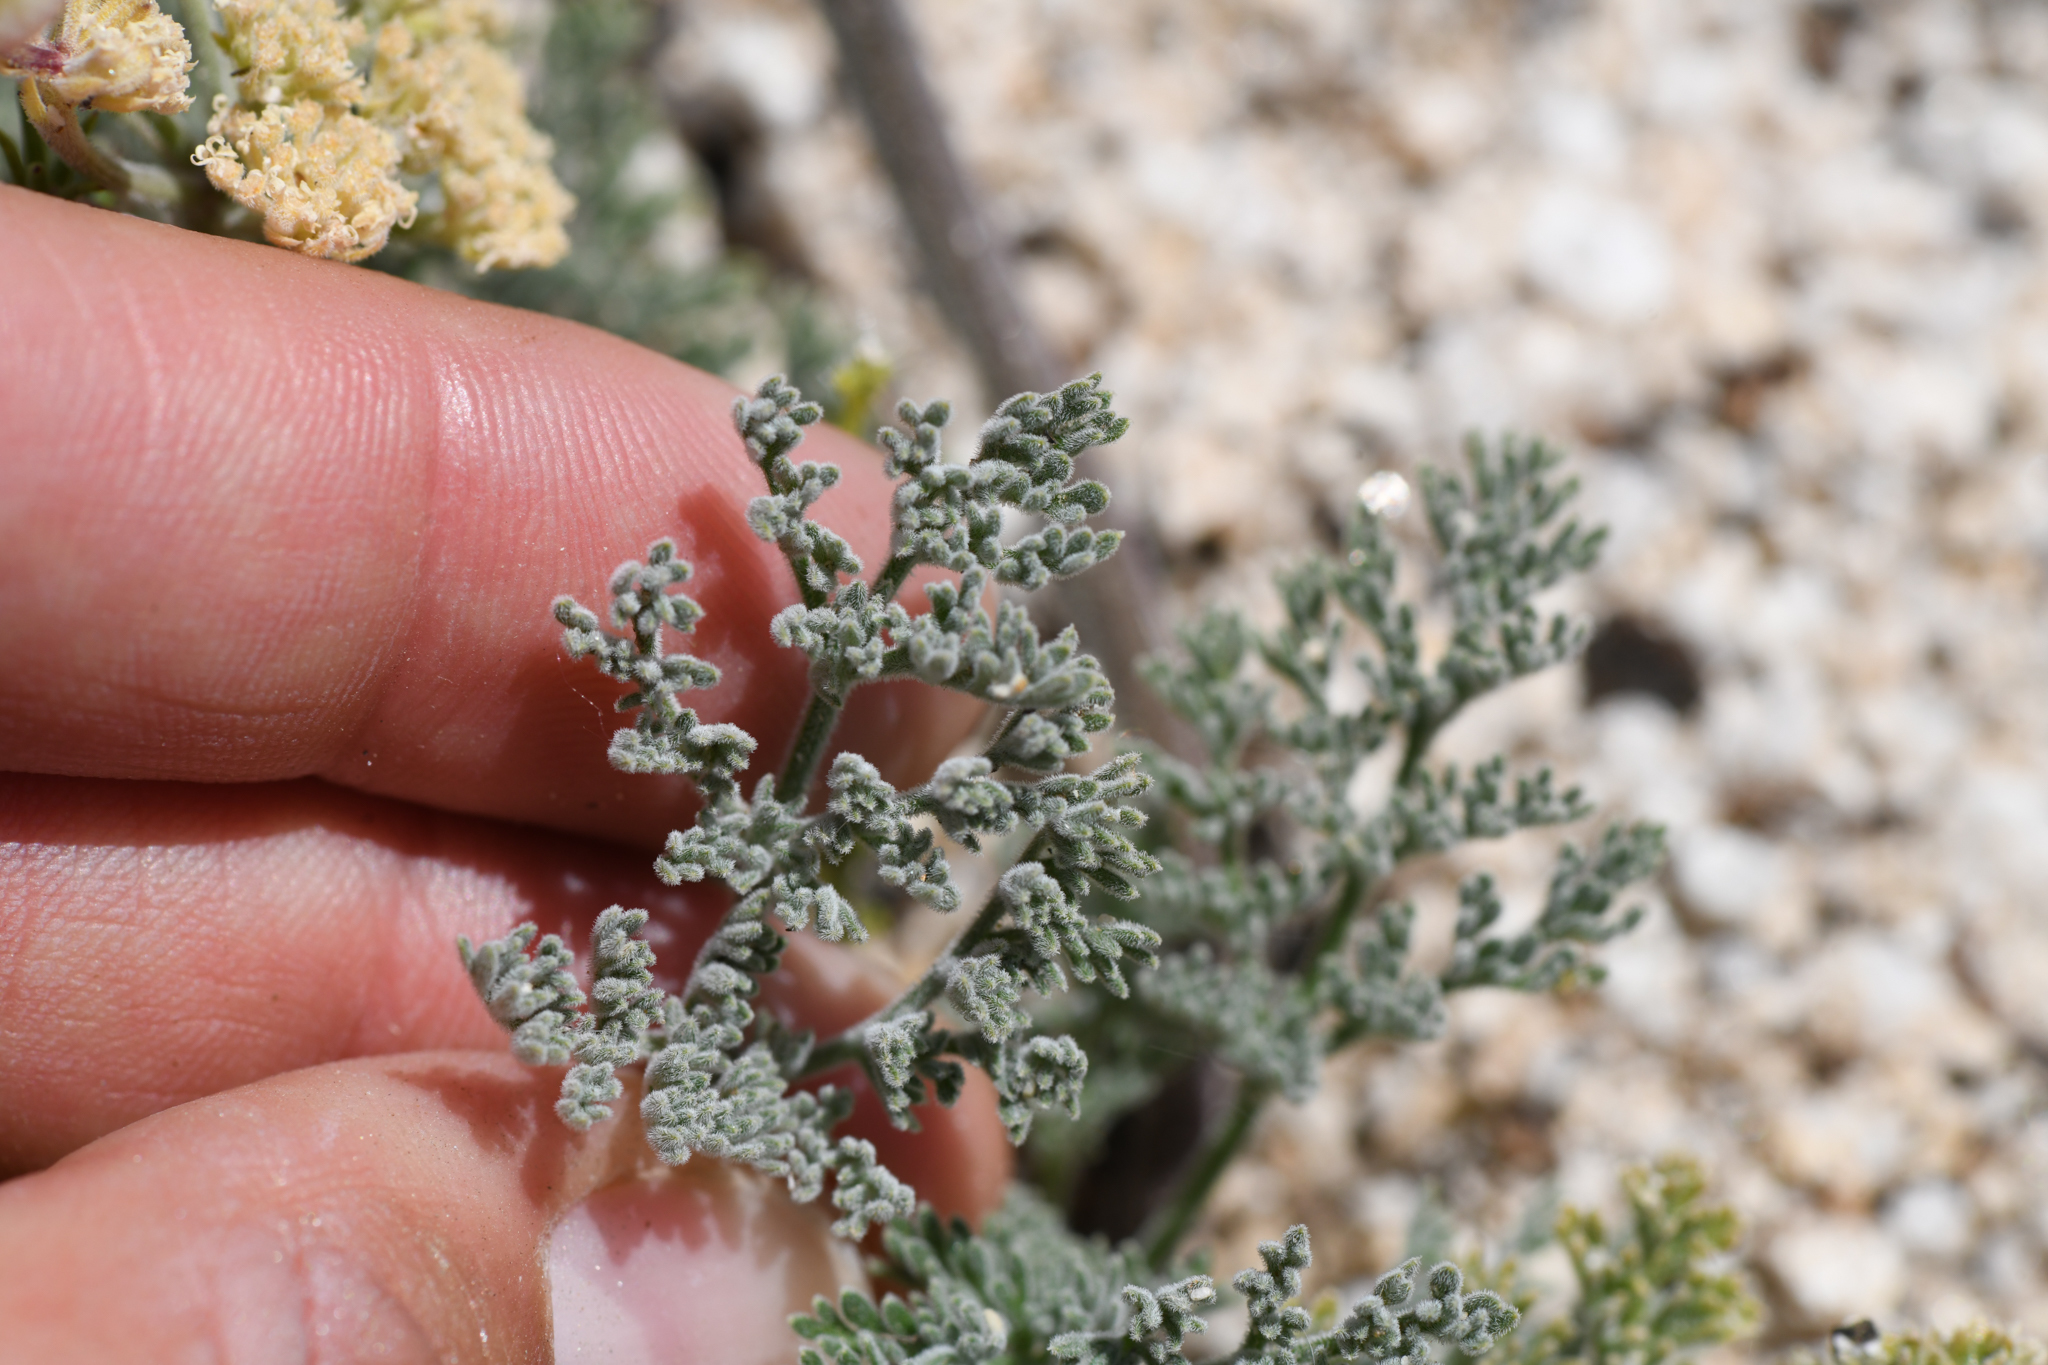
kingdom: Plantae
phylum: Tracheophyta
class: Magnoliopsida
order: Apiales
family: Apiaceae
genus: Lomatium
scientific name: Lomatium dasycarpum
